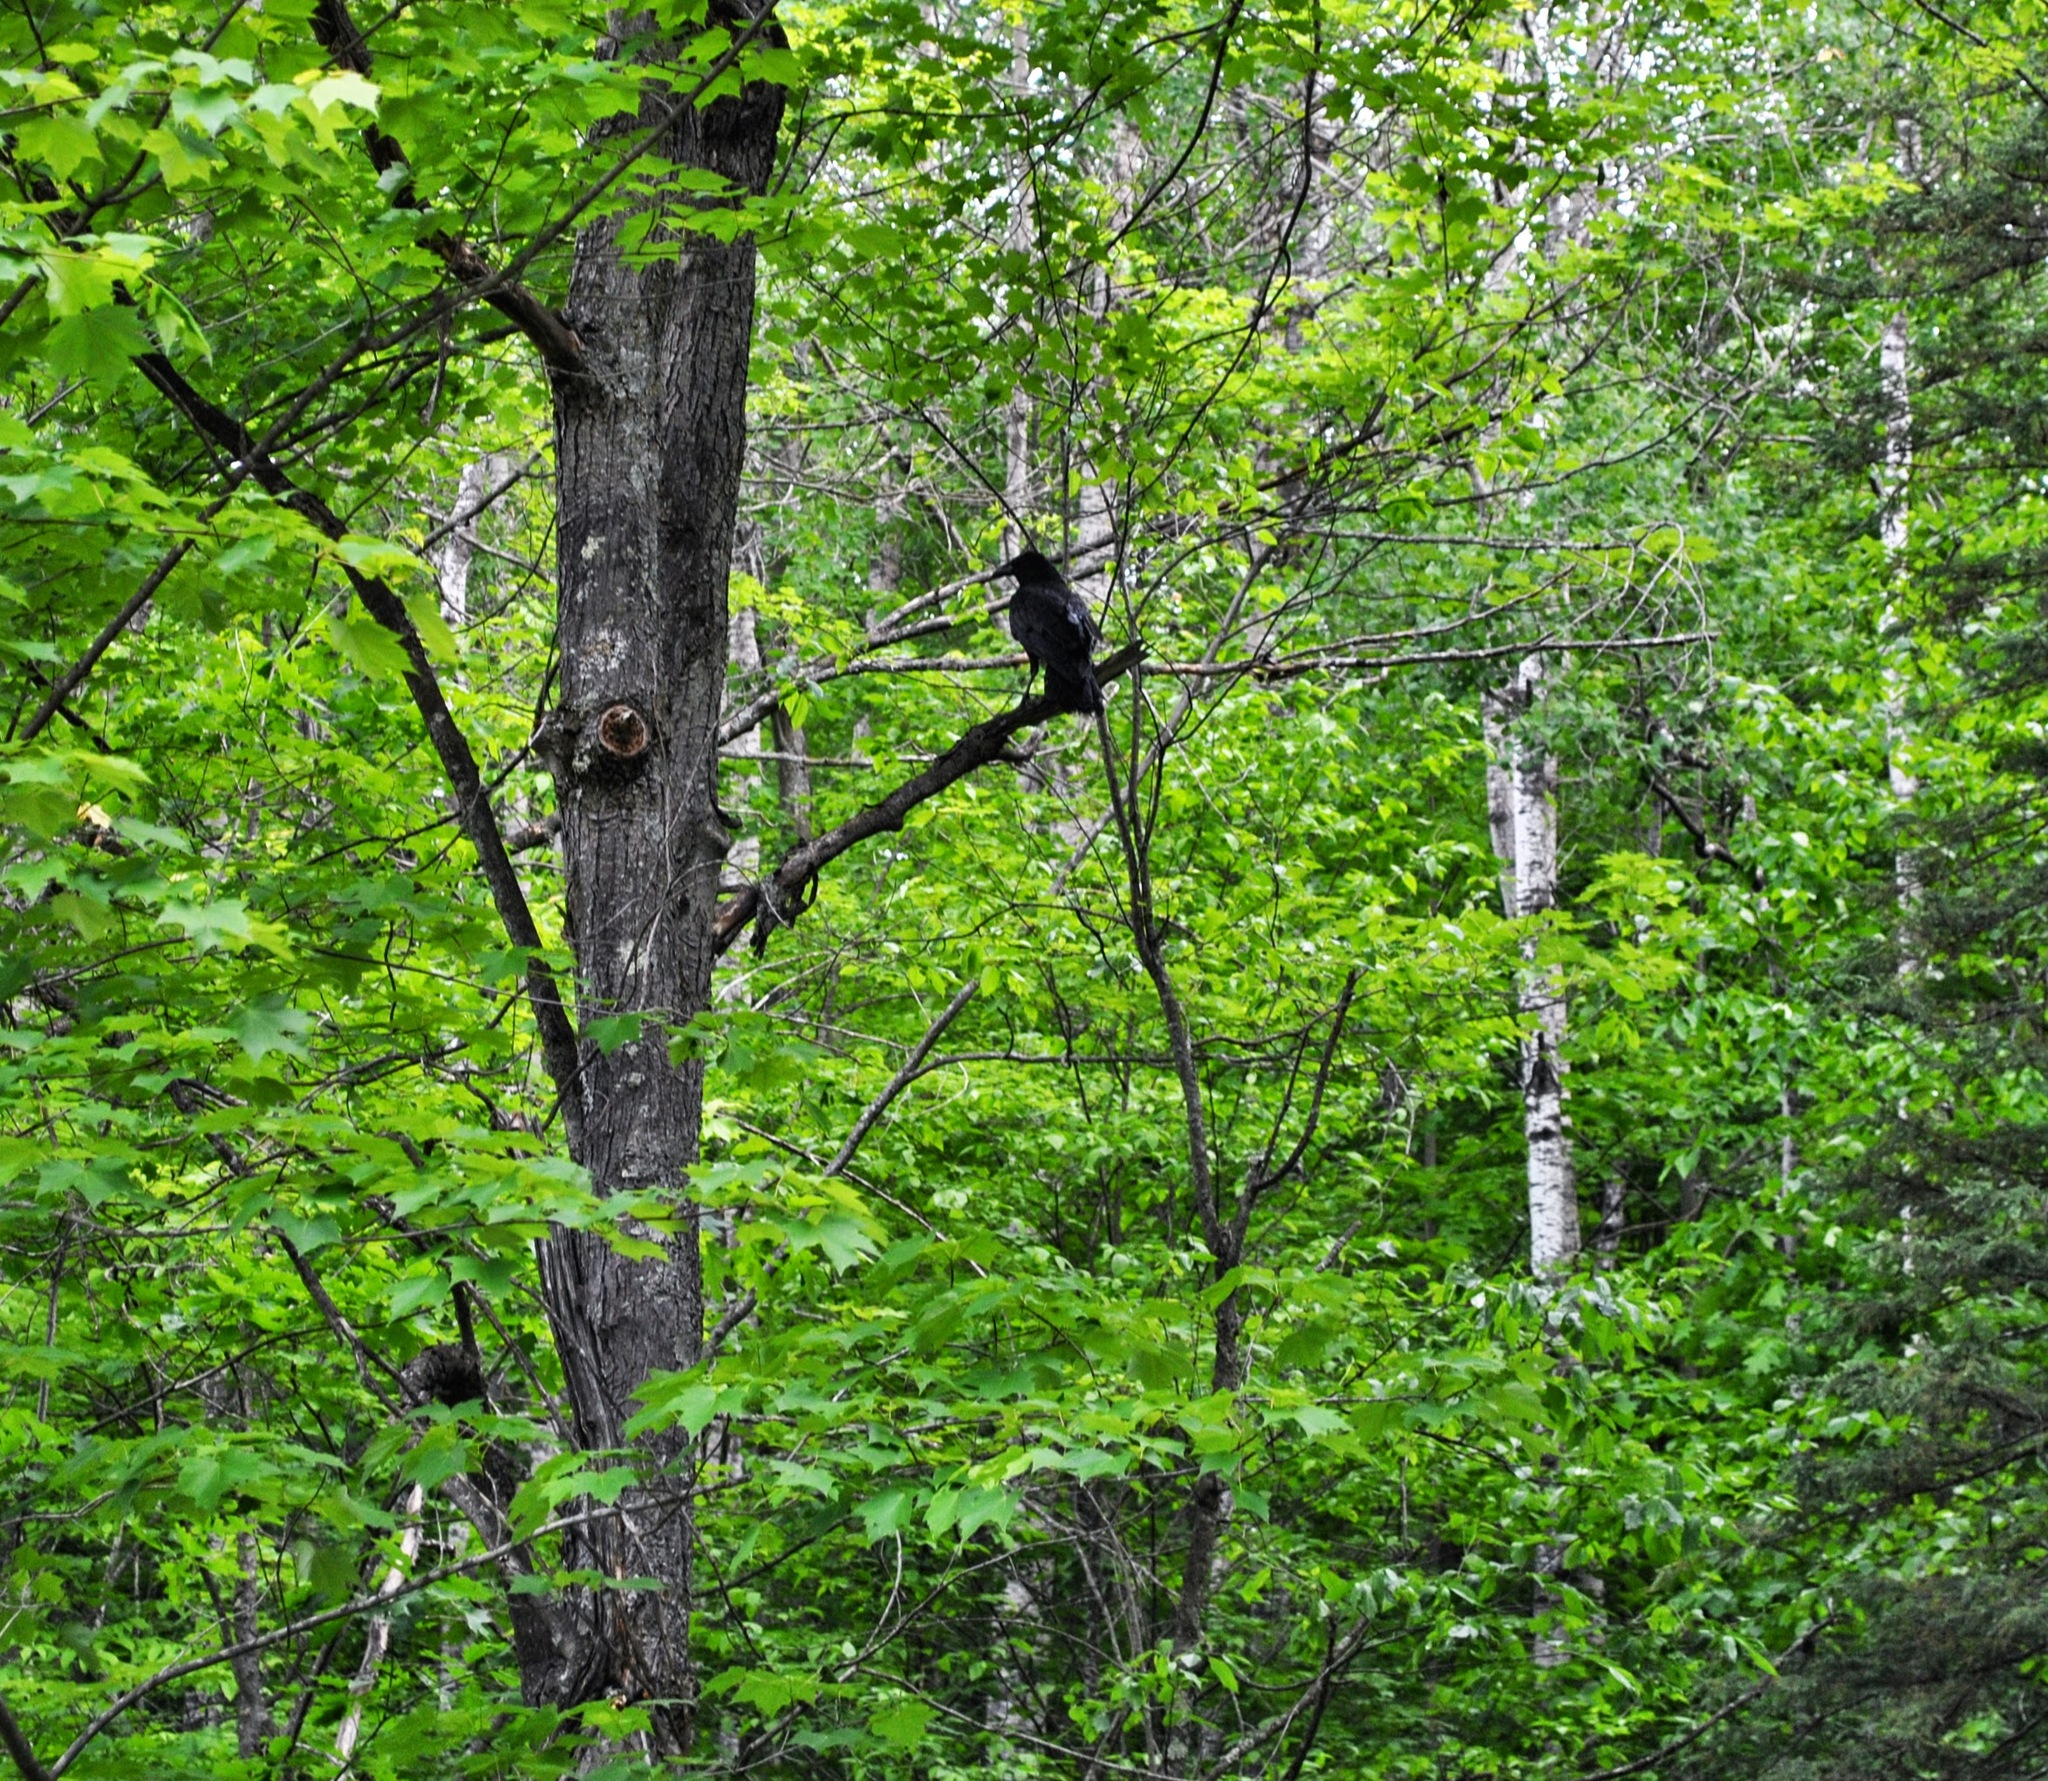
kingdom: Animalia
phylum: Chordata
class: Aves
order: Passeriformes
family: Corvidae
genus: Corvus
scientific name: Corvus corax
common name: Common raven
